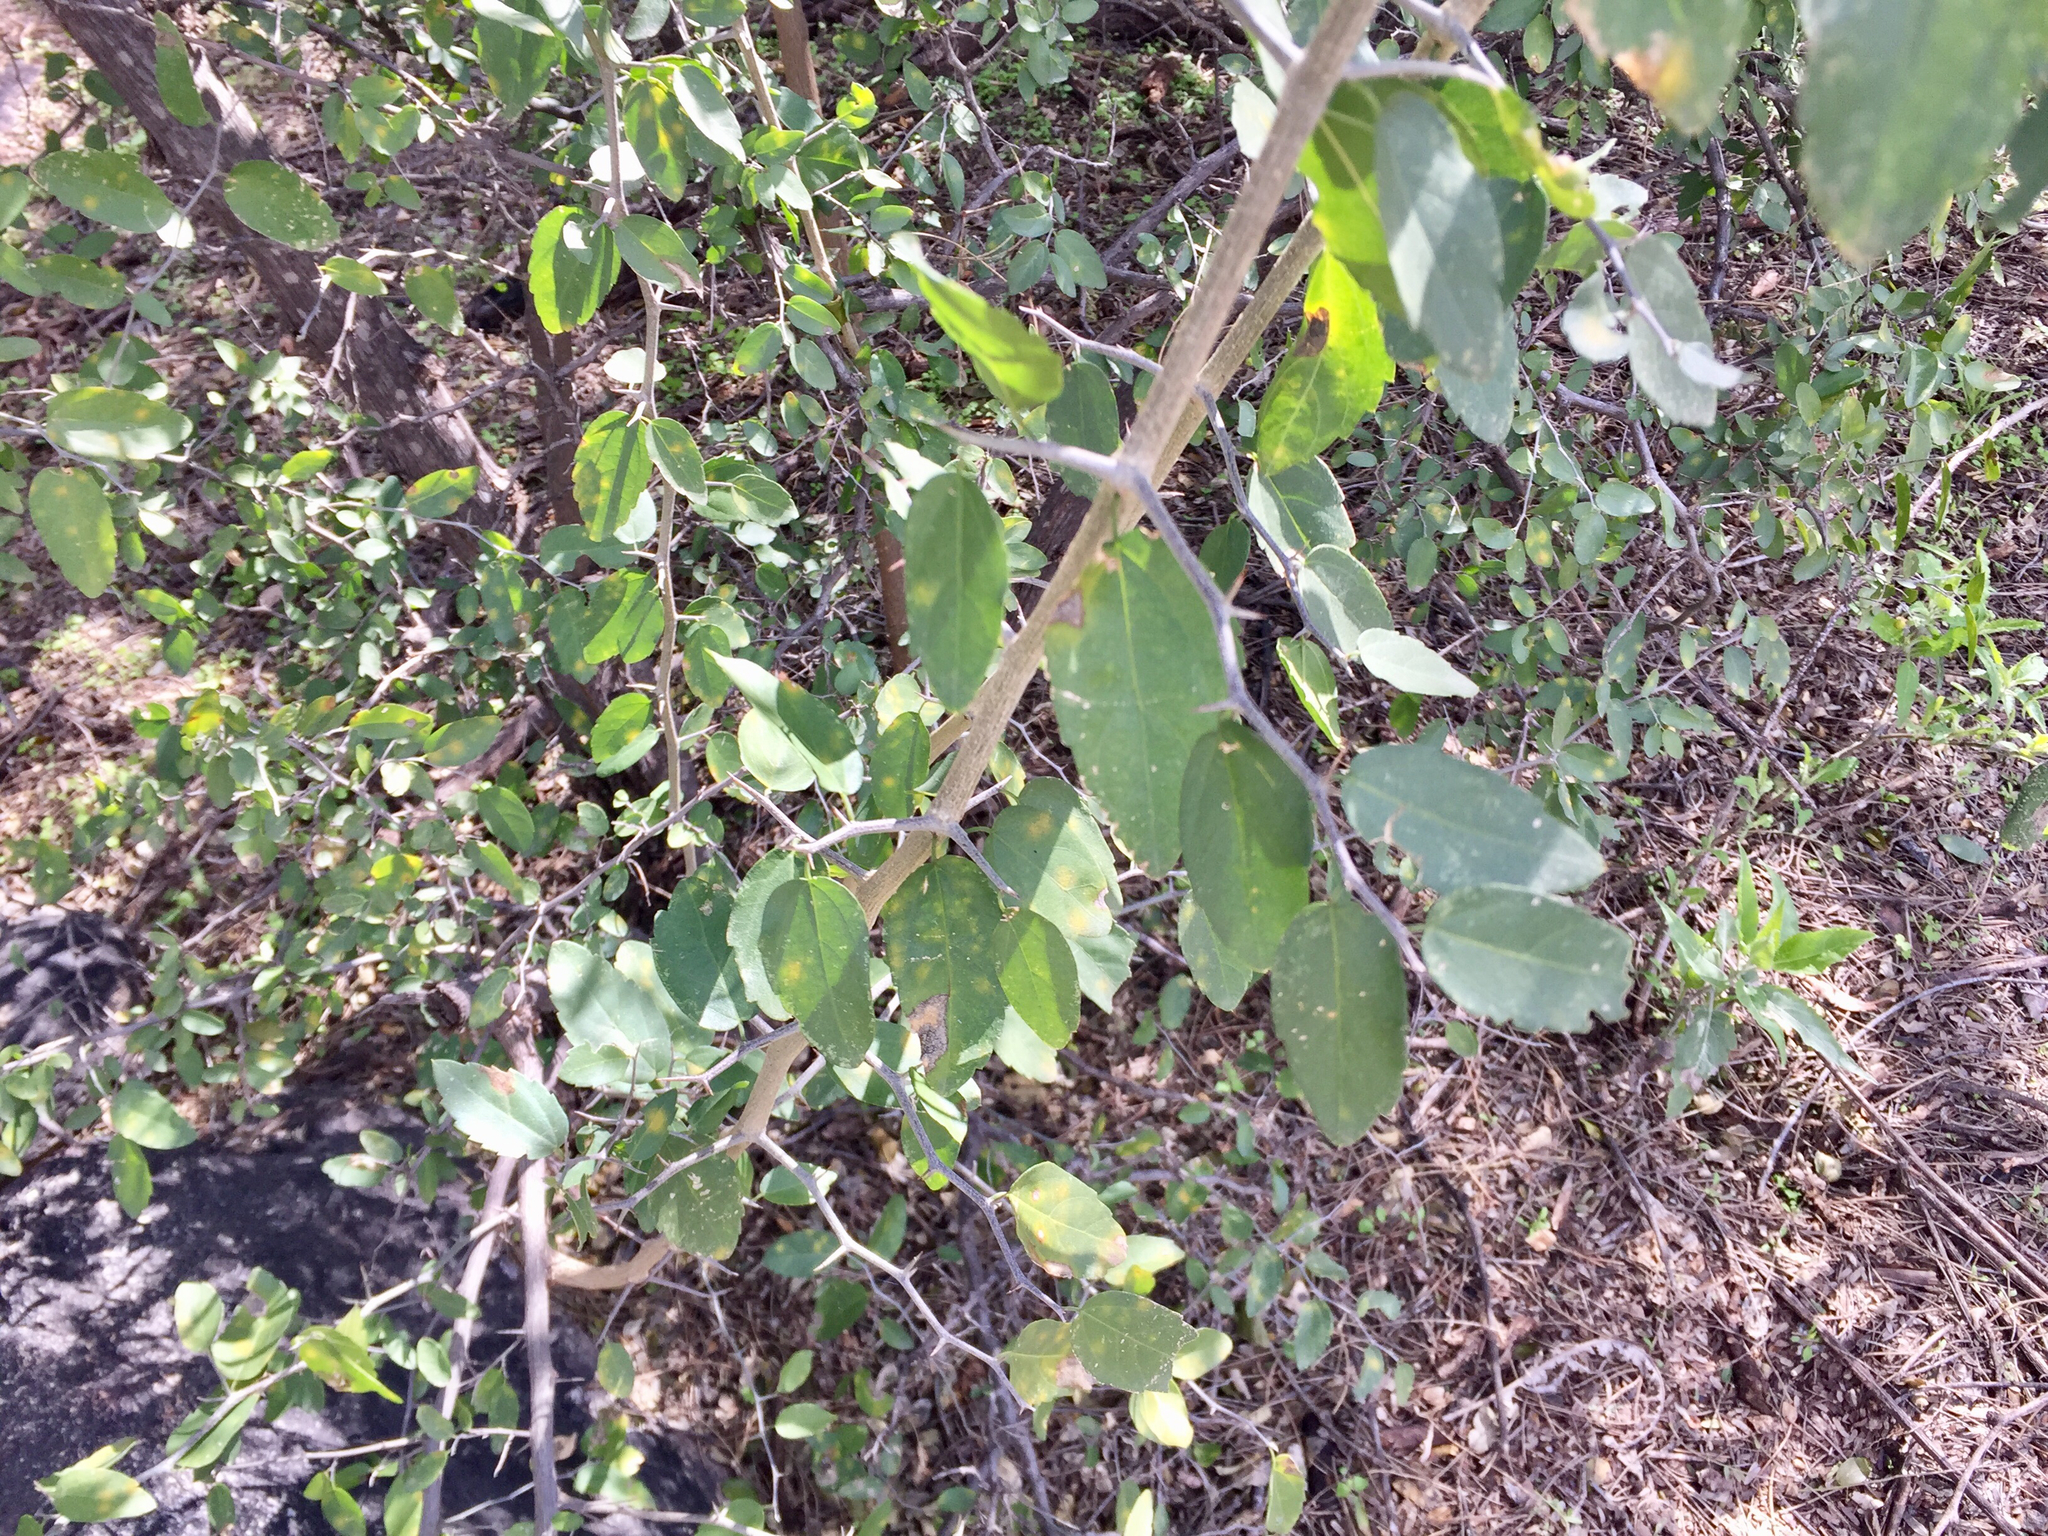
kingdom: Plantae
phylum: Tracheophyta
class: Magnoliopsida
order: Rosales
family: Cannabaceae
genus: Celtis
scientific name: Celtis pallida
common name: Desert hackberry
